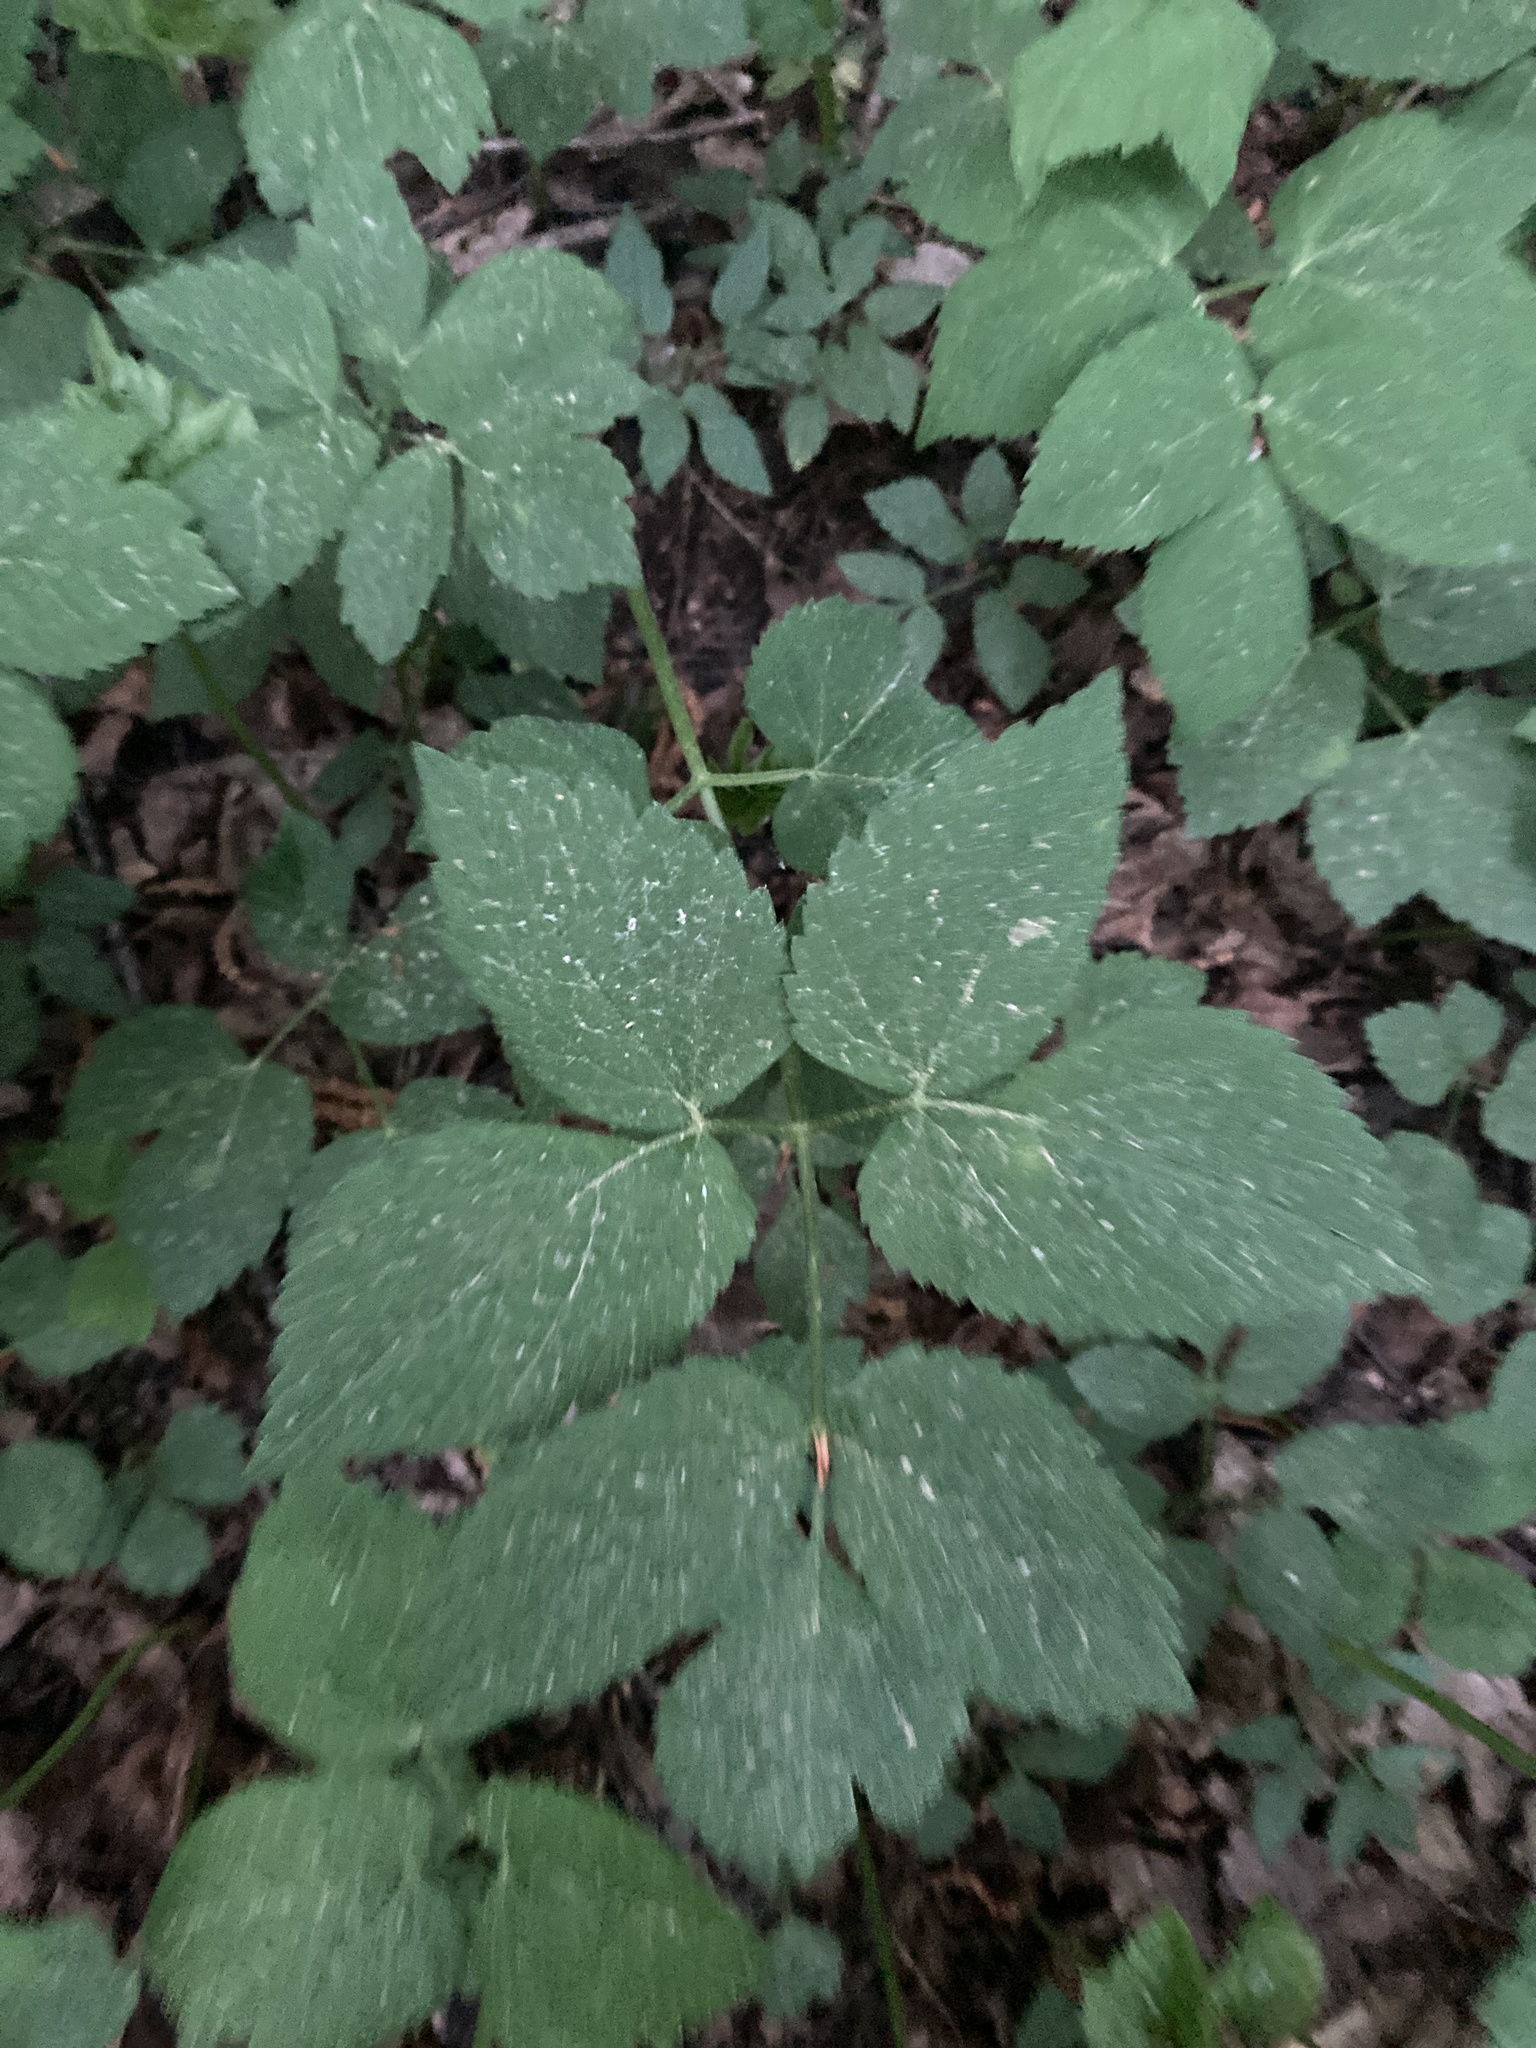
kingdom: Plantae
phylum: Tracheophyta
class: Magnoliopsida
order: Apiales
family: Apiaceae
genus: Aegopodium
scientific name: Aegopodium podagraria
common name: Ground-elder
